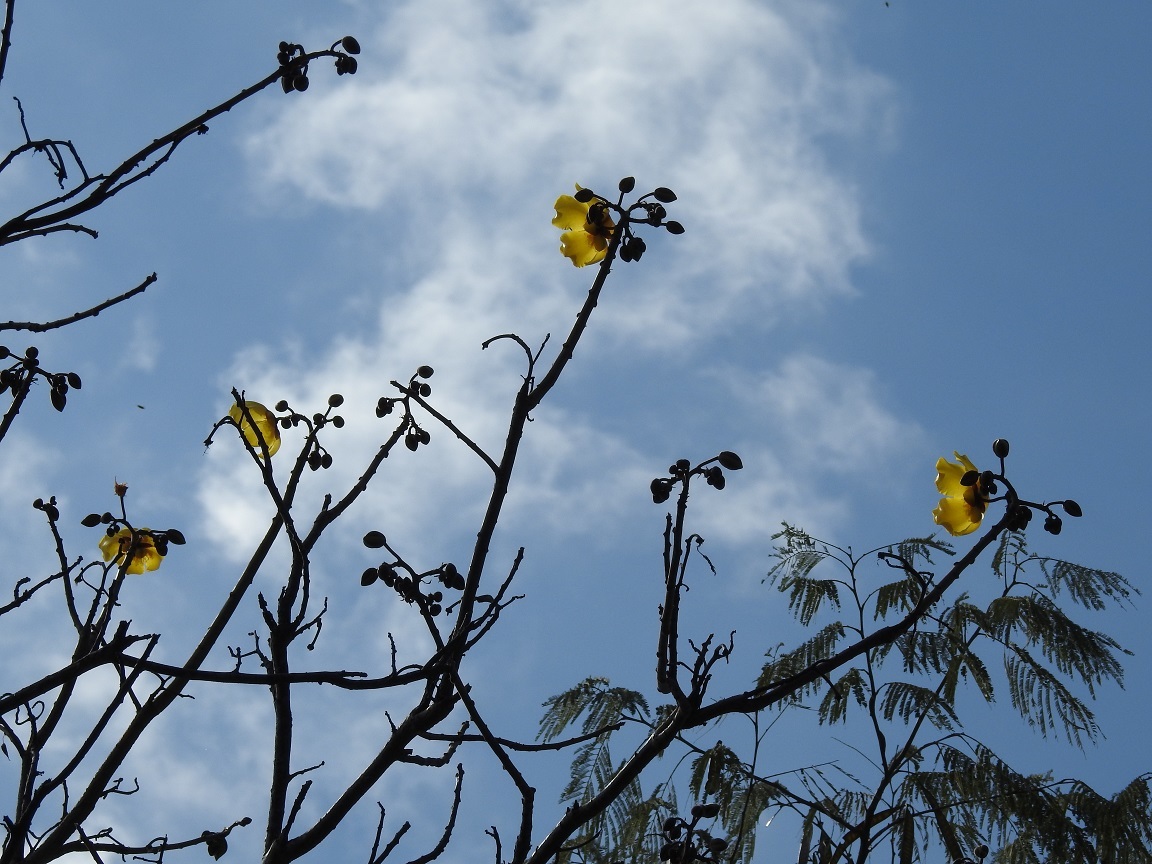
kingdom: Plantae
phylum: Tracheophyta
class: Magnoliopsida
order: Malvales
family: Cochlospermaceae
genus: Cochlospermum
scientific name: Cochlospermum vitifolium
